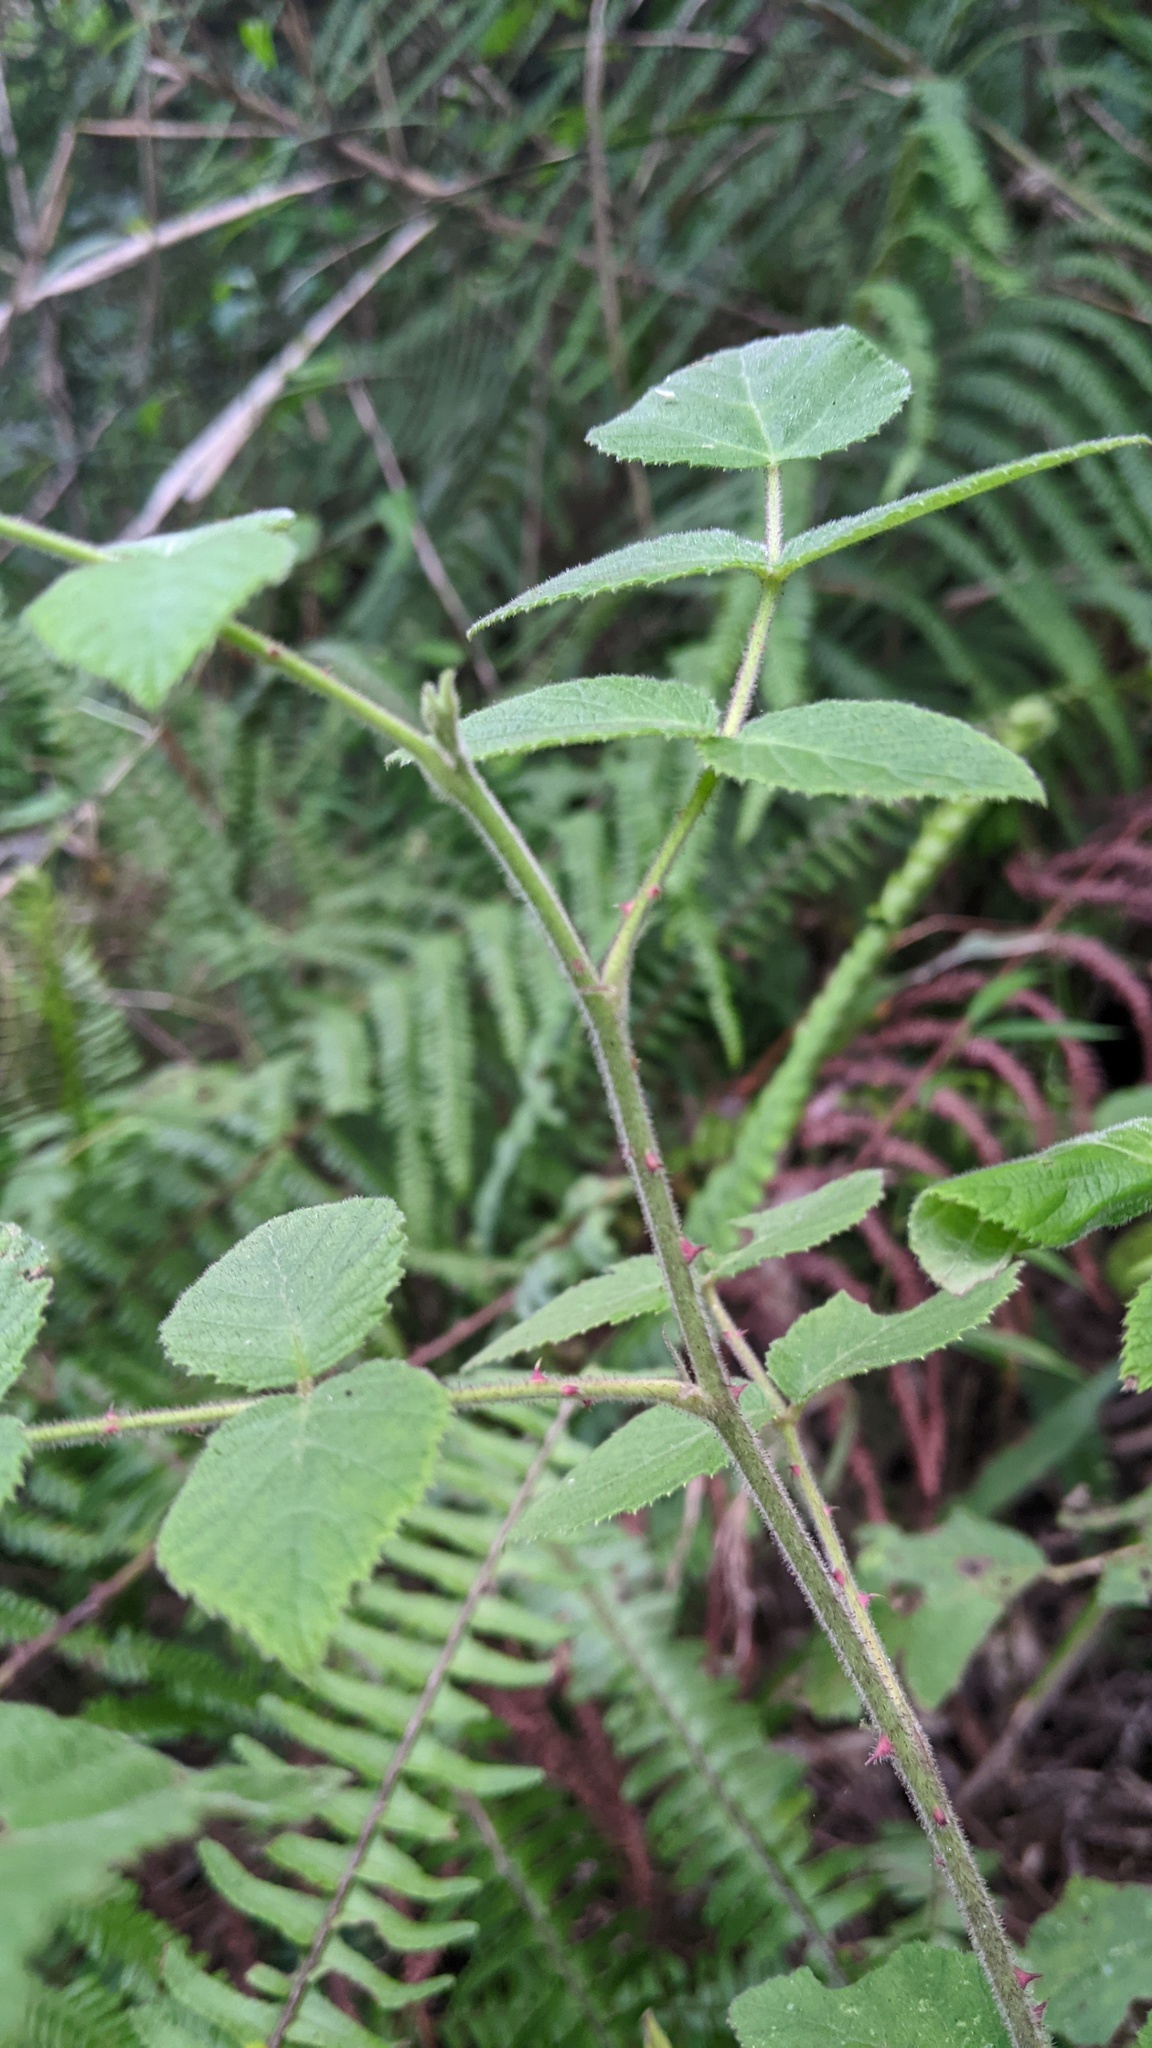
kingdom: Plantae
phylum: Tracheophyta
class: Magnoliopsida
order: Rosales
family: Rosaceae
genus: Rubus
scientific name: Rubus parviaraliifolius
